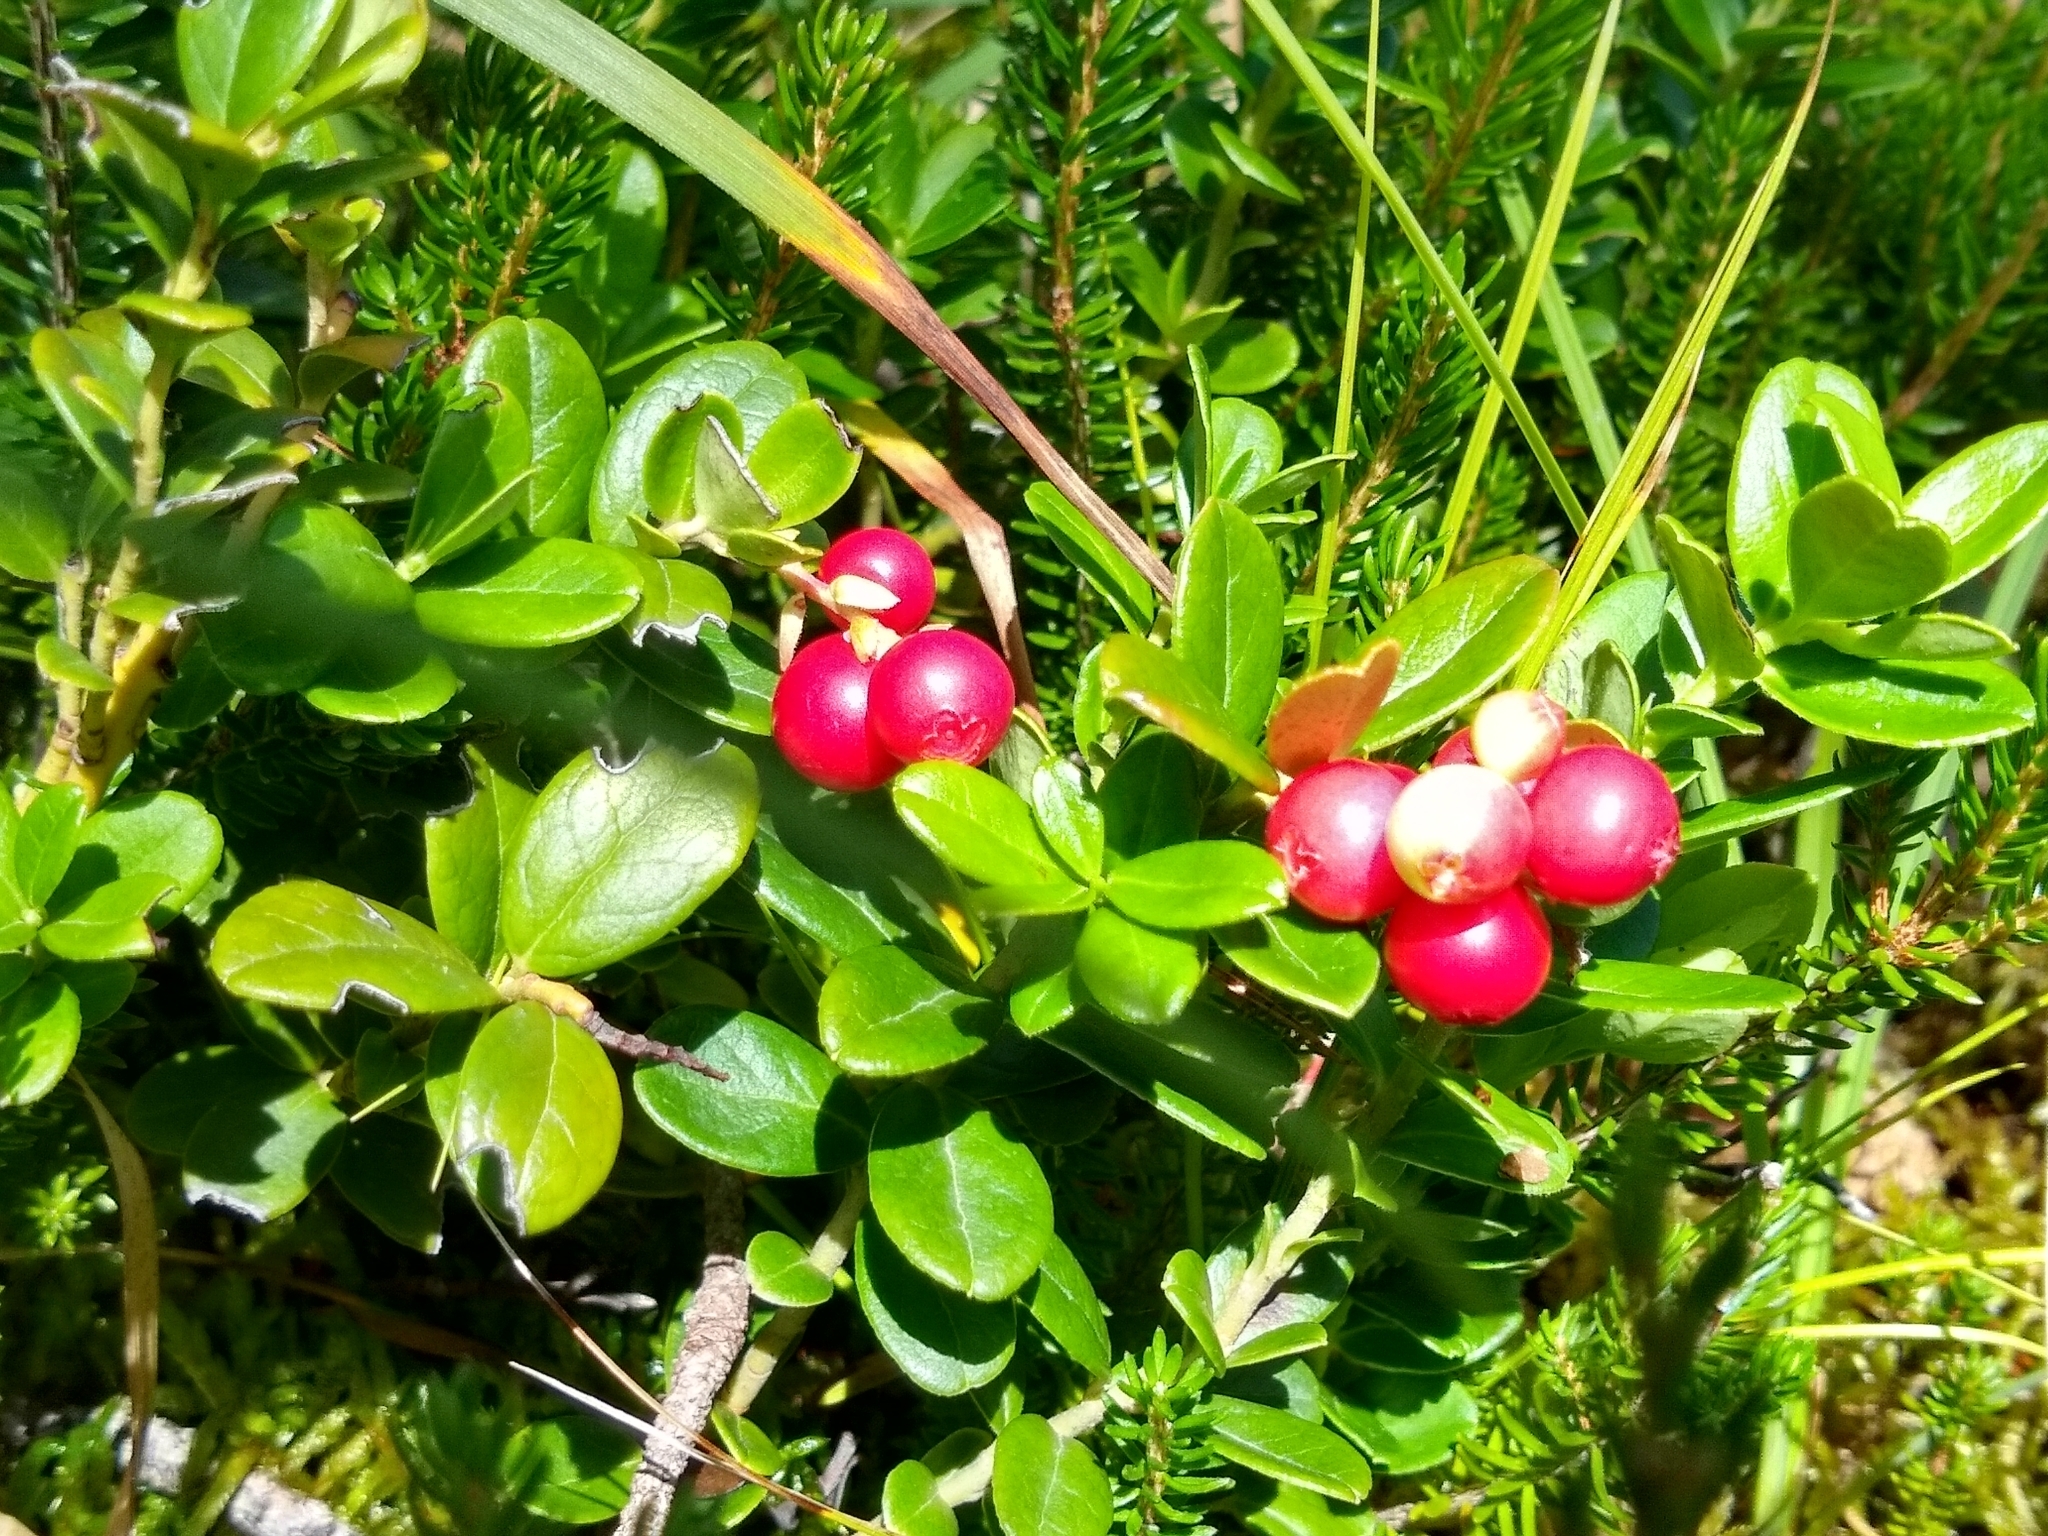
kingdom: Plantae
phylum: Tracheophyta
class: Magnoliopsida
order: Ericales
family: Ericaceae
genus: Vaccinium
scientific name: Vaccinium vitis-idaea
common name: Cowberry
